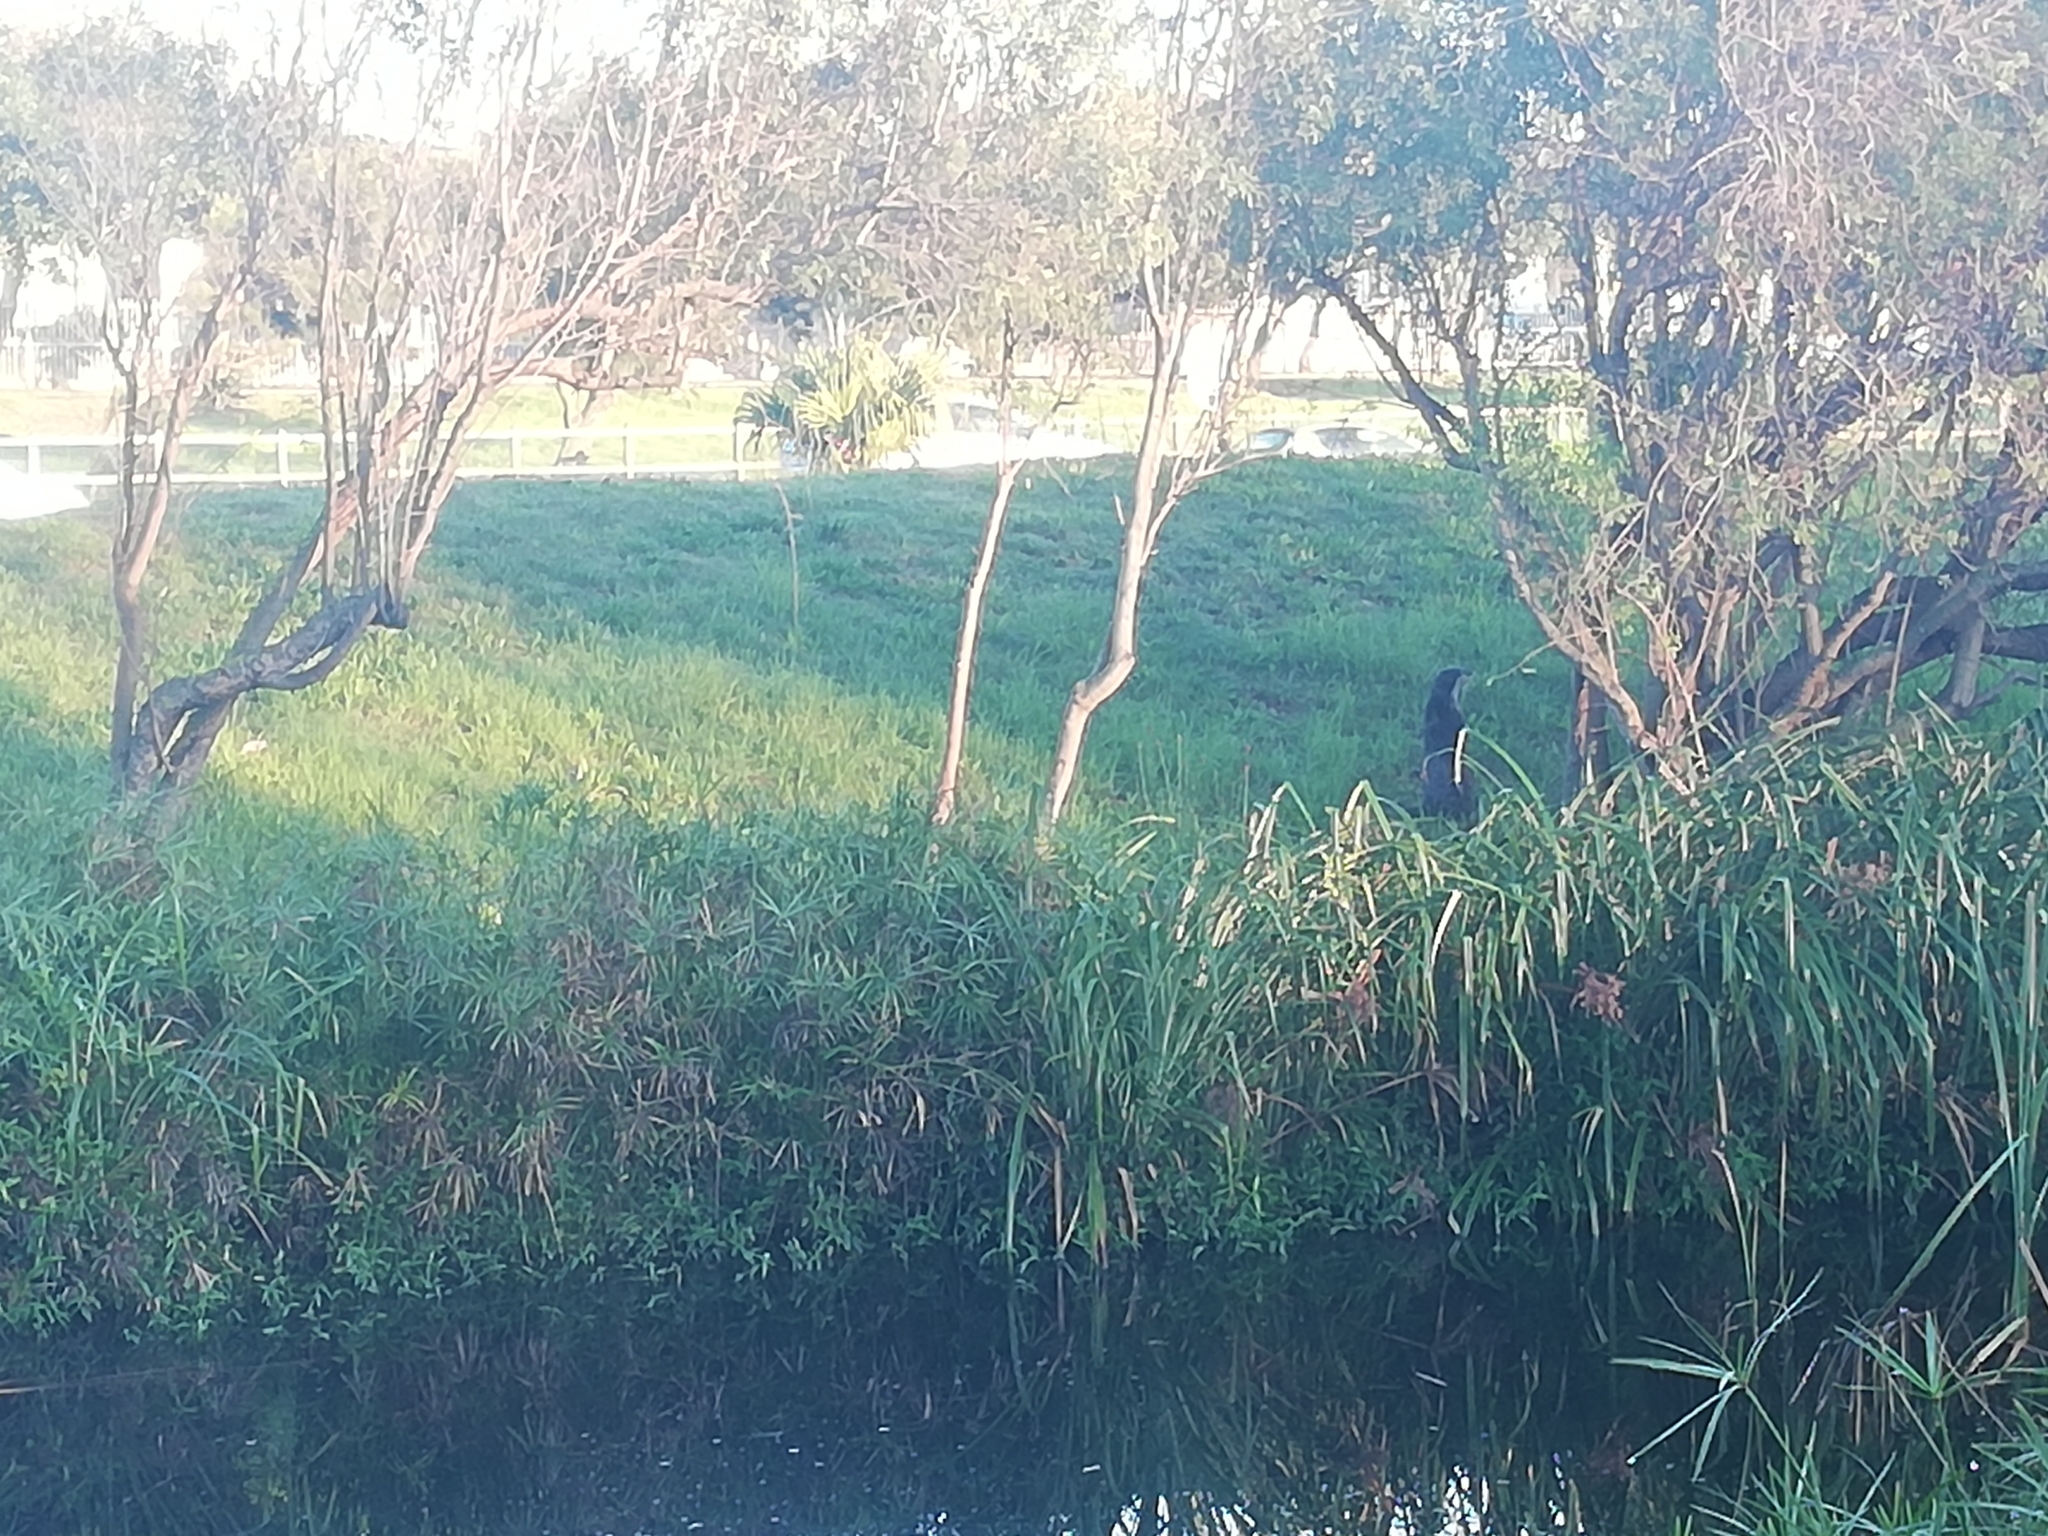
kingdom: Animalia
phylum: Chordata
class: Mammalia
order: Carnivora
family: Mustelidae
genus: Aonyx
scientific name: Aonyx capensis
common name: African clawless otter
